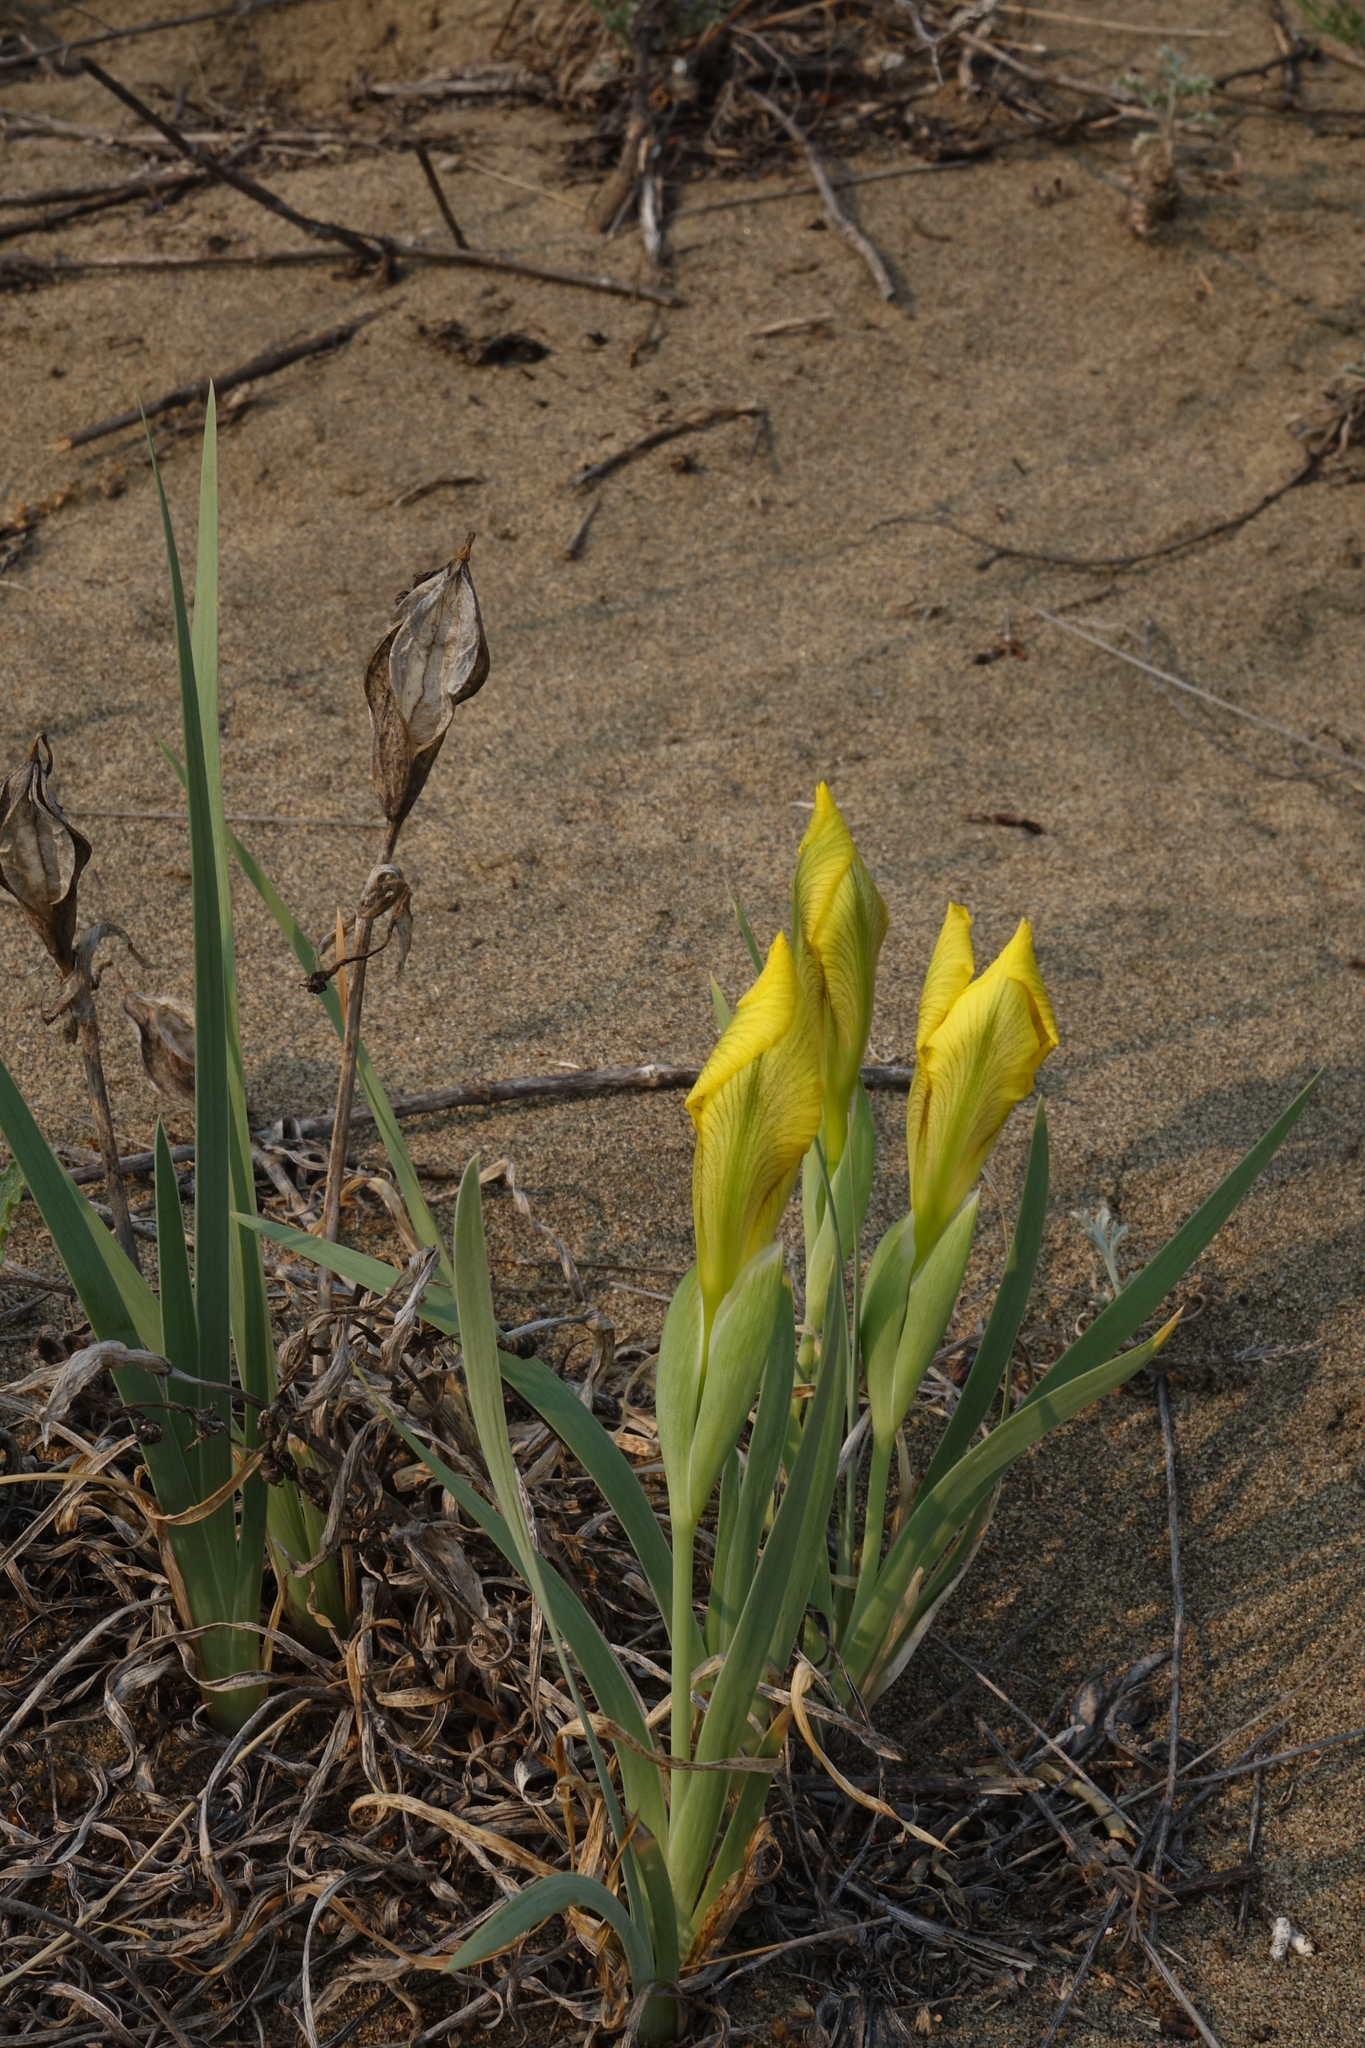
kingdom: Plantae
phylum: Tracheophyta
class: Liliopsida
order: Asparagales
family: Iridaceae
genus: Iris
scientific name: Iris humilis
